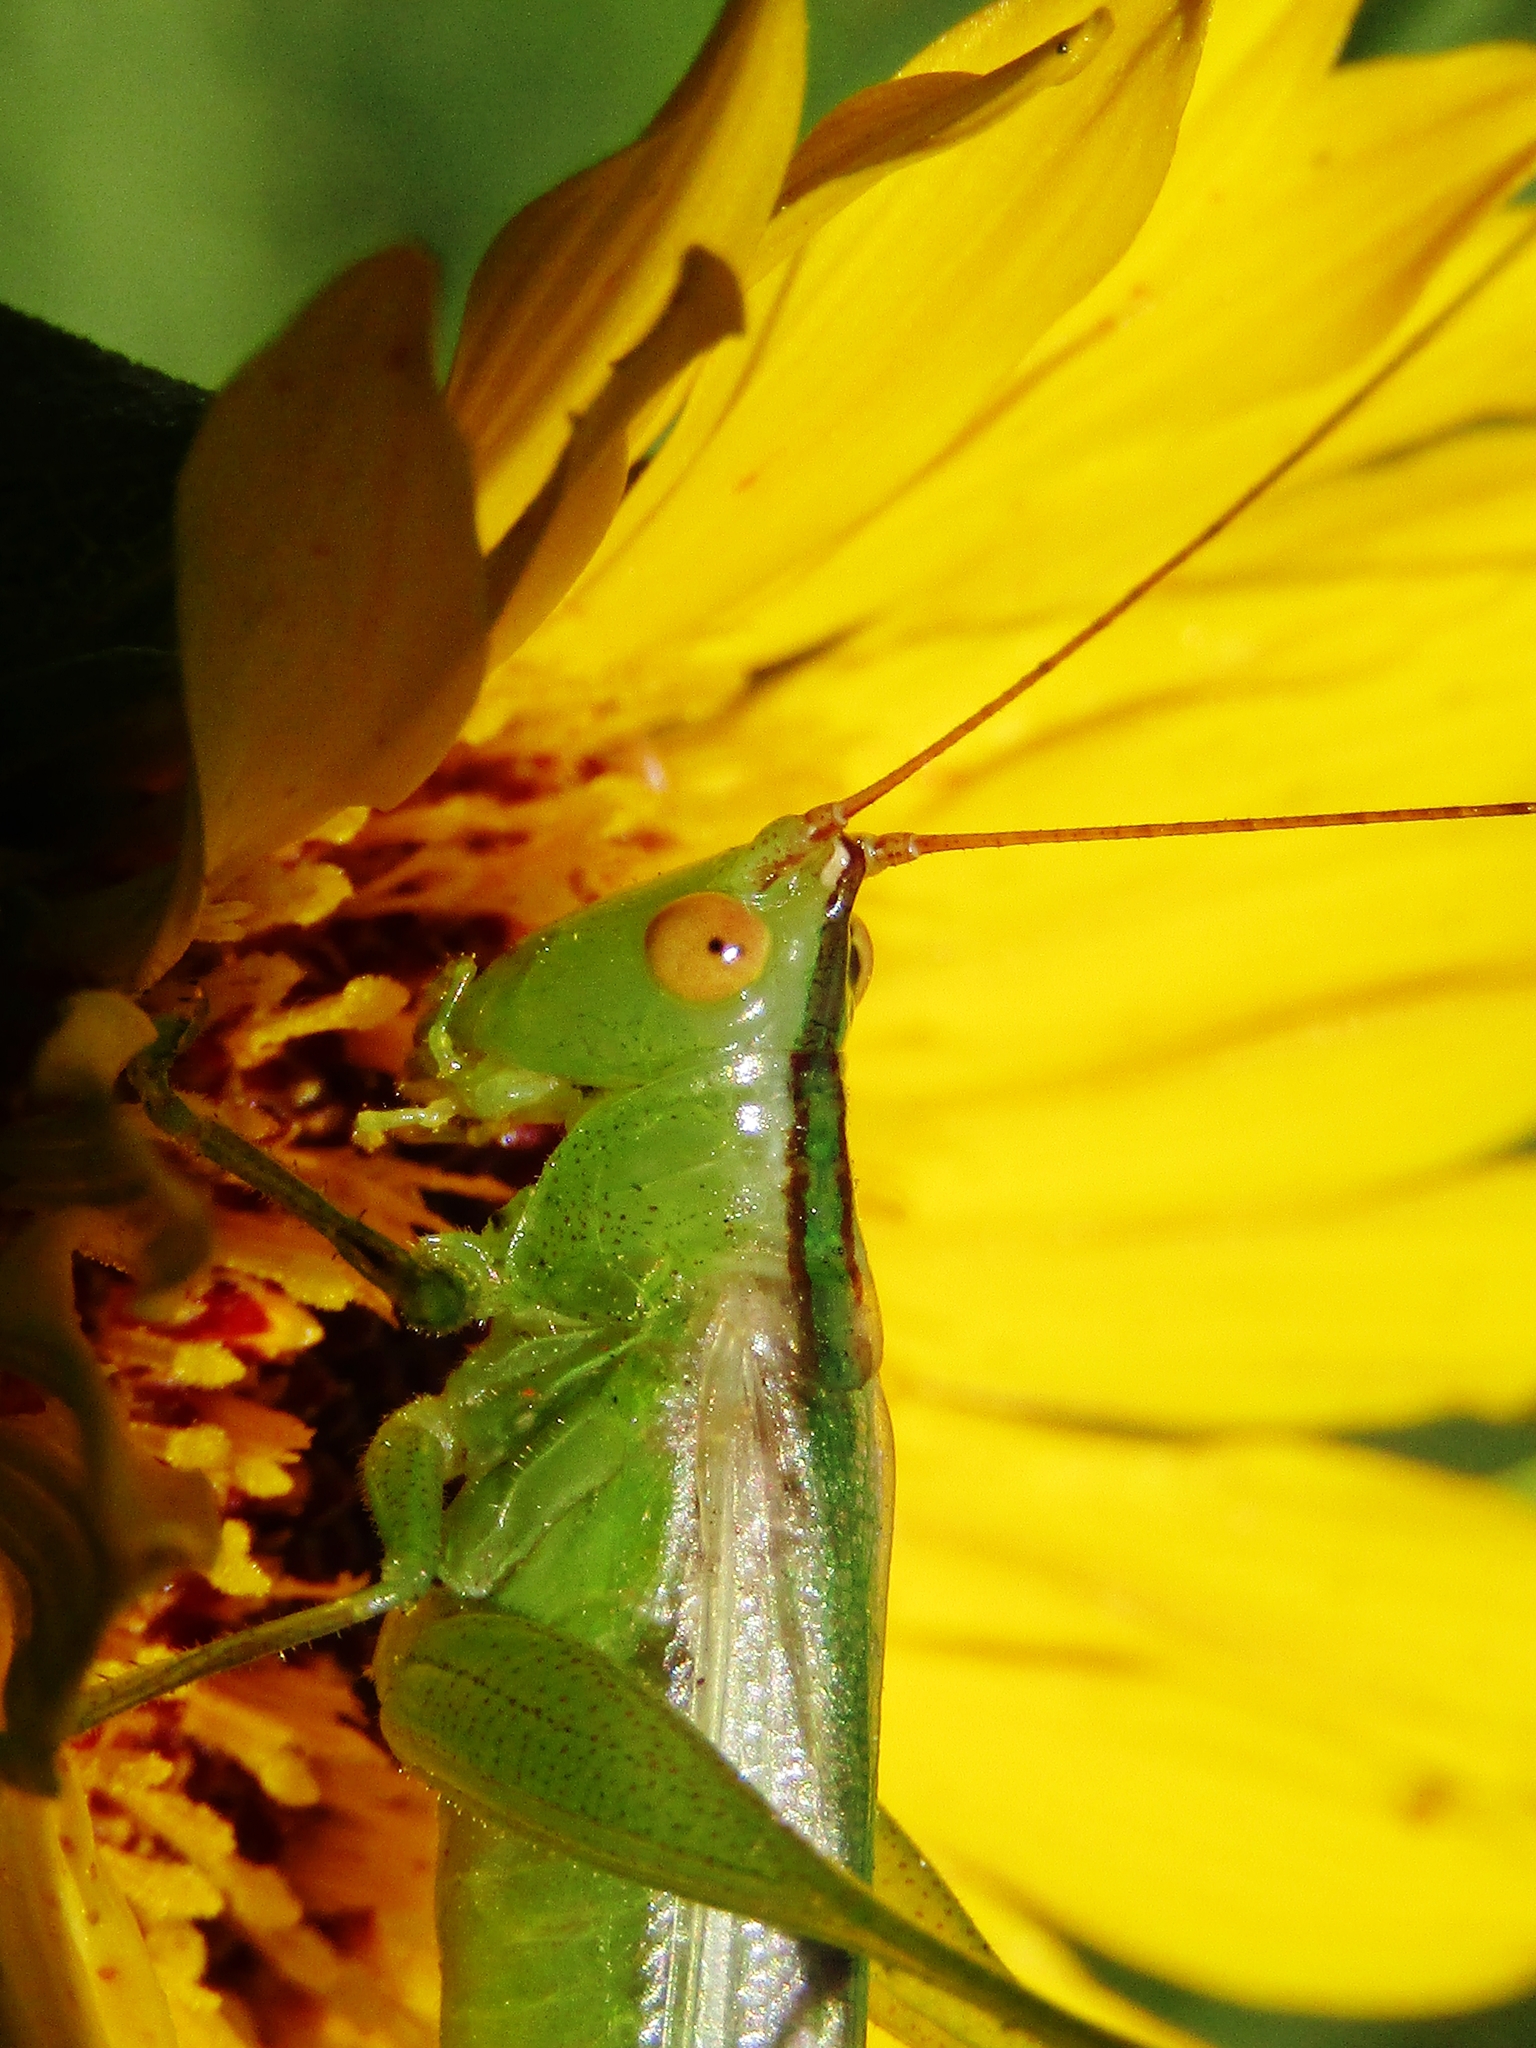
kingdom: Animalia
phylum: Arthropoda
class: Insecta
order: Orthoptera
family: Tettigoniidae
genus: Conocephalus
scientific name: Conocephalus longipes
